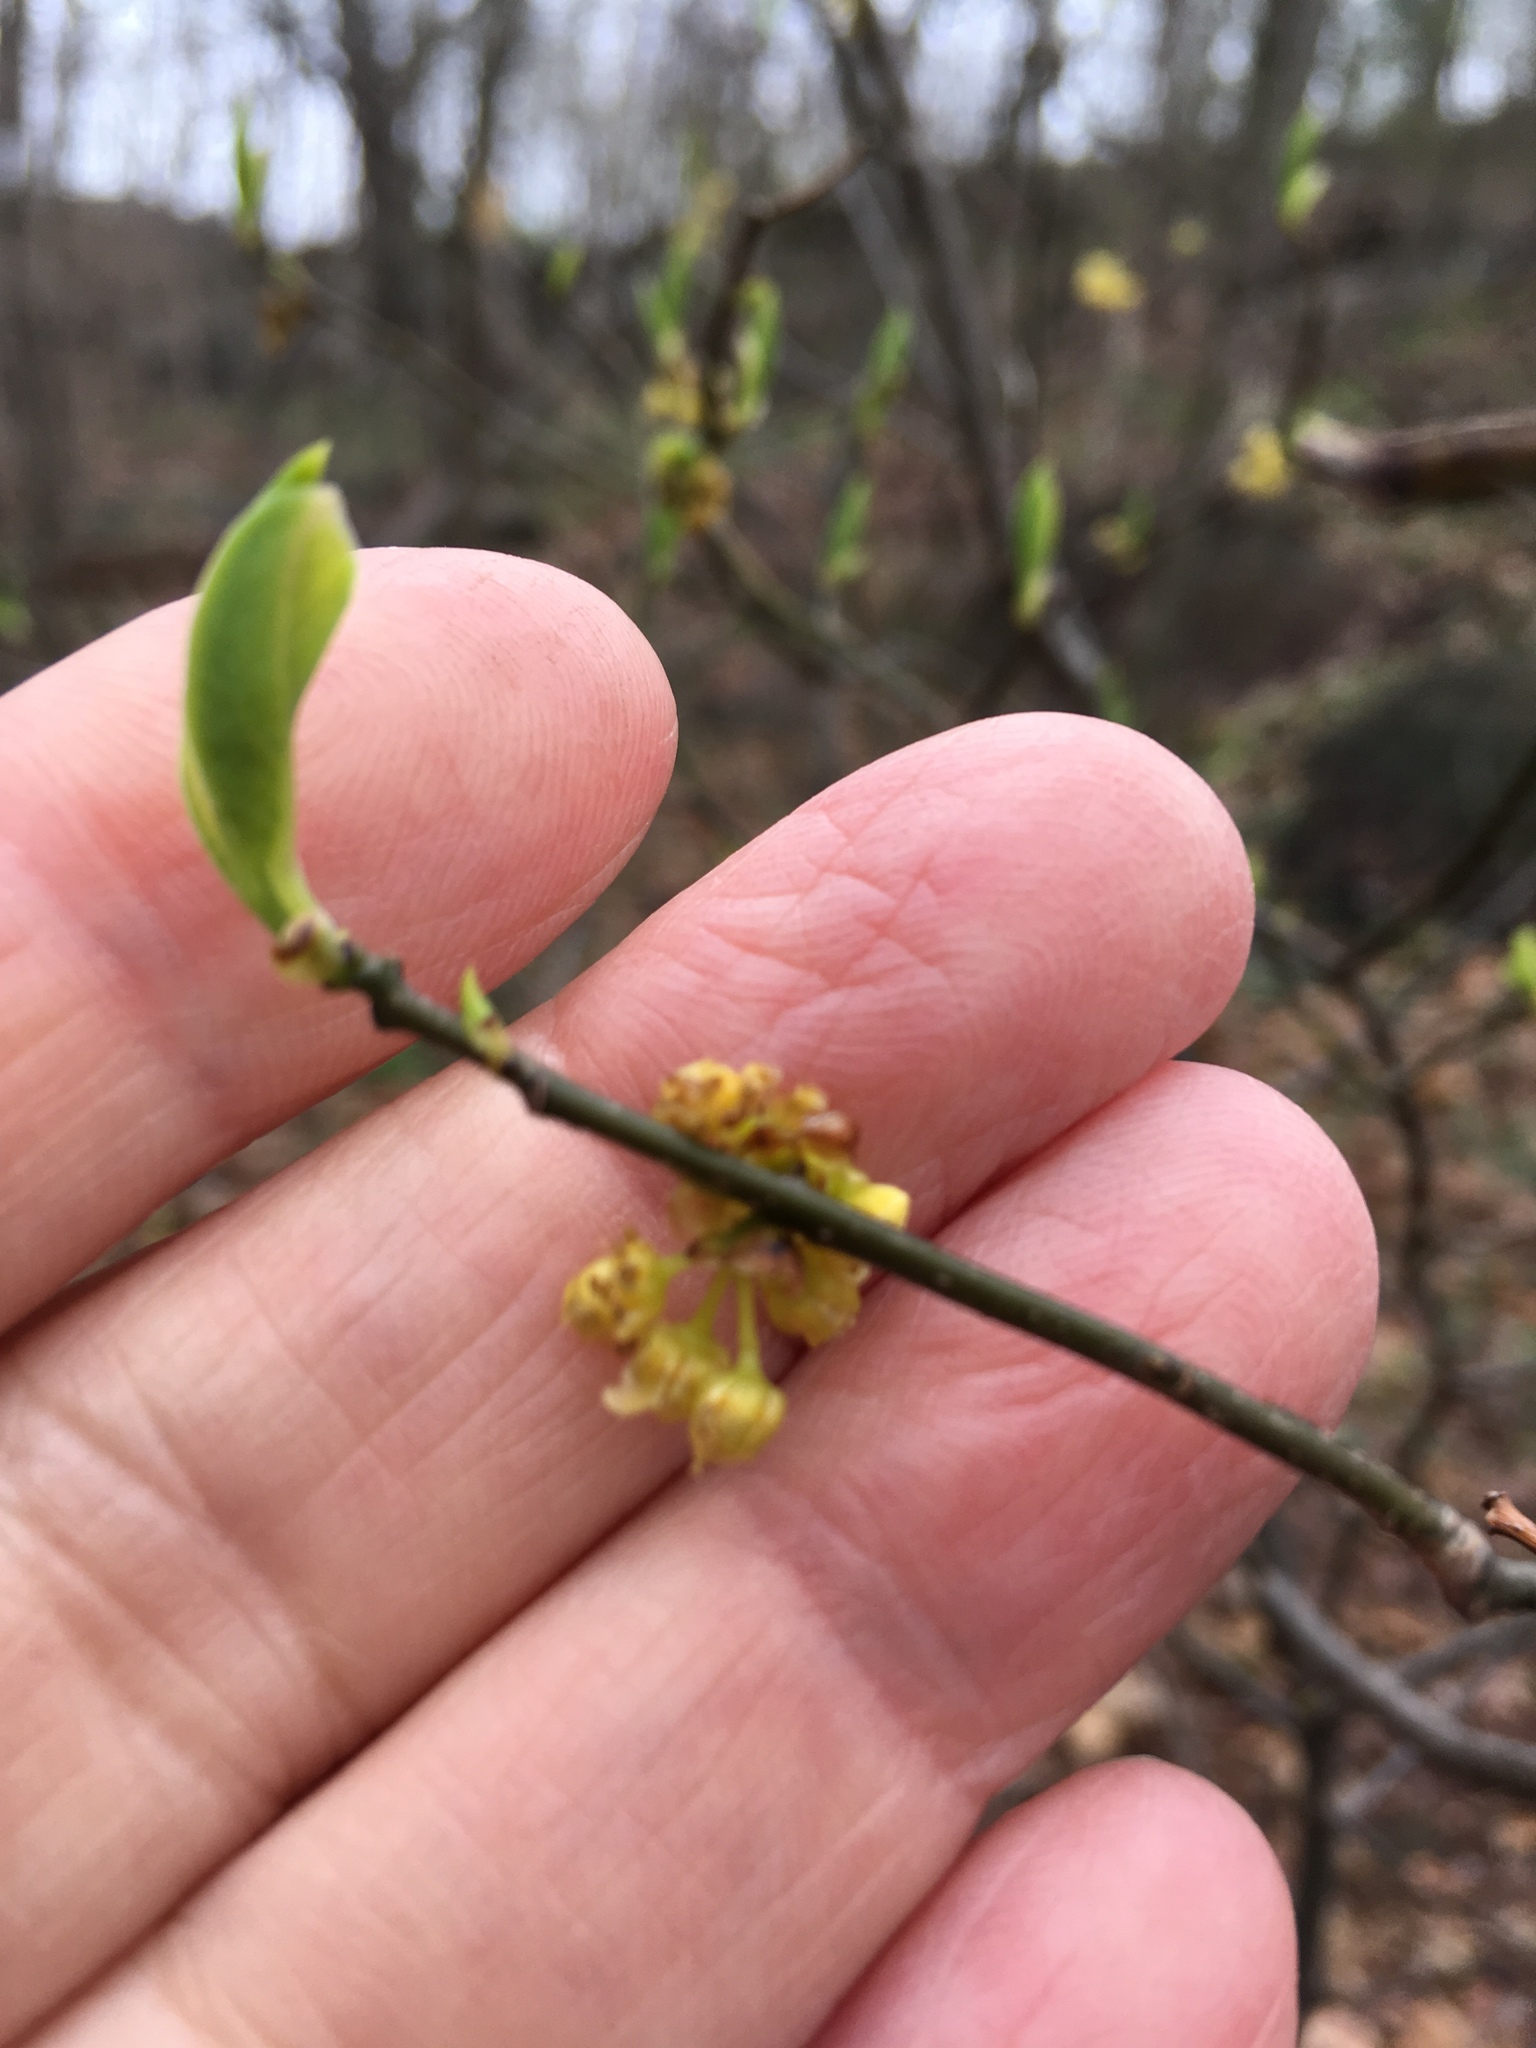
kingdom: Plantae
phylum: Tracheophyta
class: Magnoliopsida
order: Laurales
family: Lauraceae
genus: Lindera
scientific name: Lindera benzoin
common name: Spicebush
